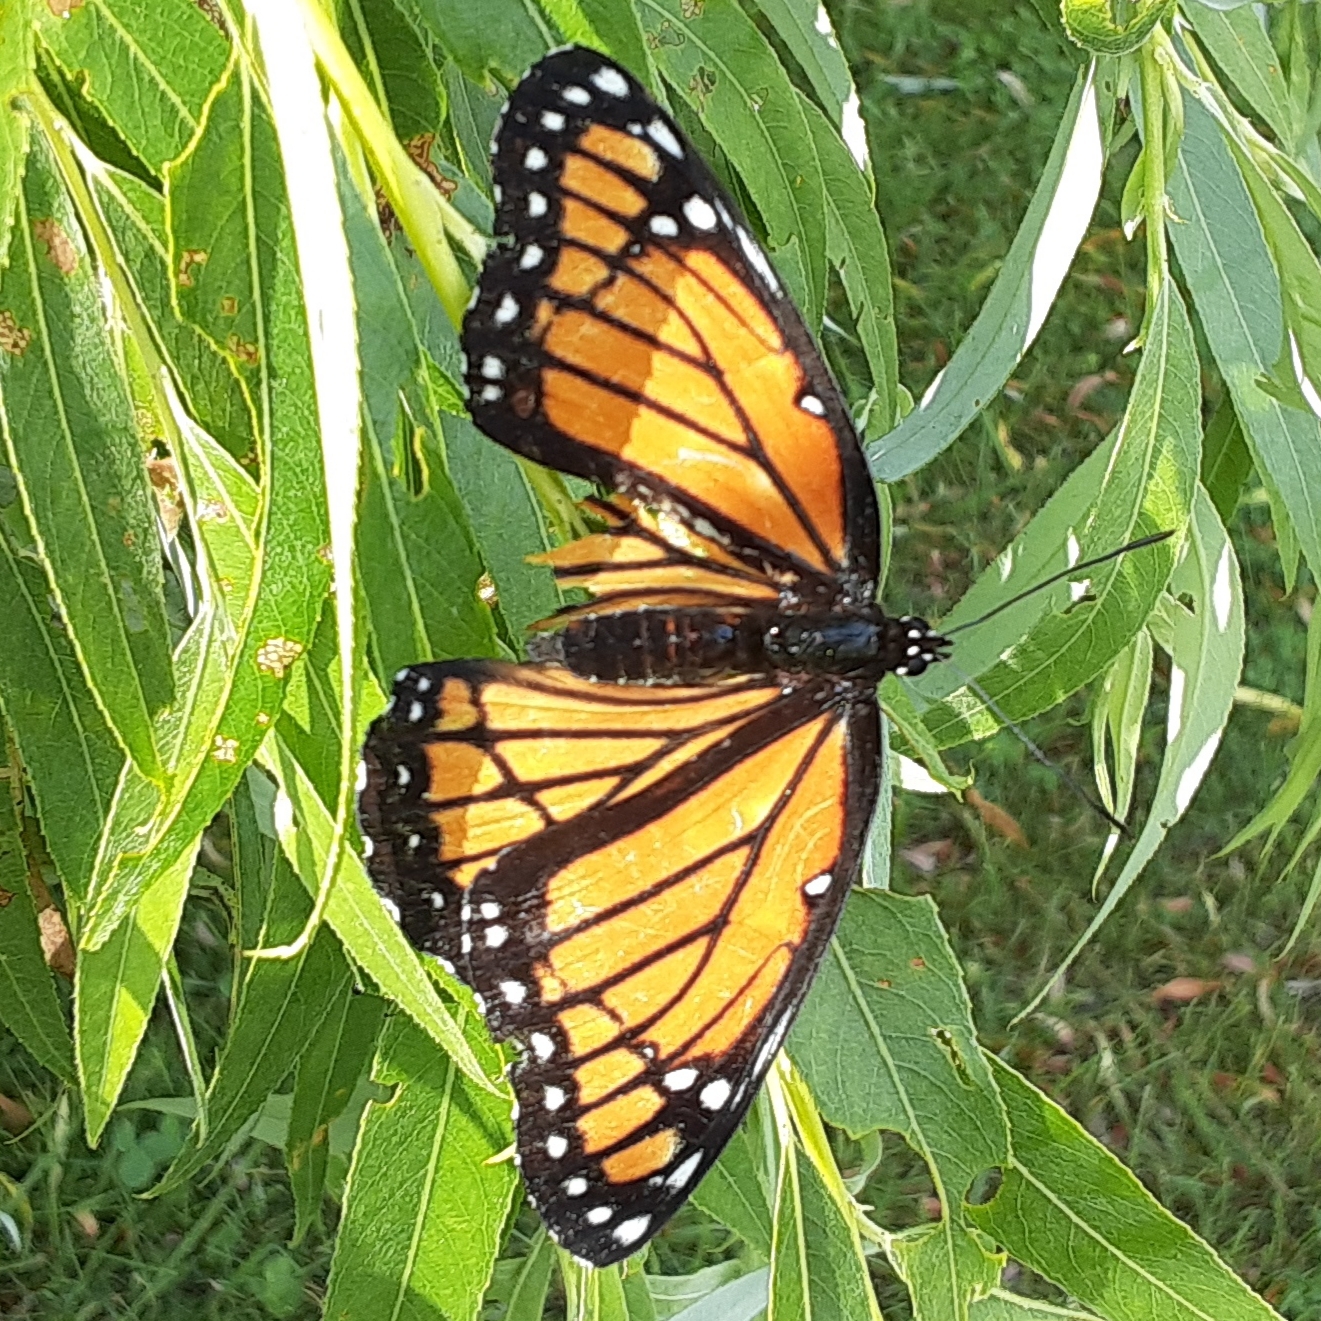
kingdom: Animalia
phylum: Arthropoda
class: Insecta
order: Lepidoptera
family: Nymphalidae
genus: Limenitis
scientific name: Limenitis archippus
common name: Viceroy
